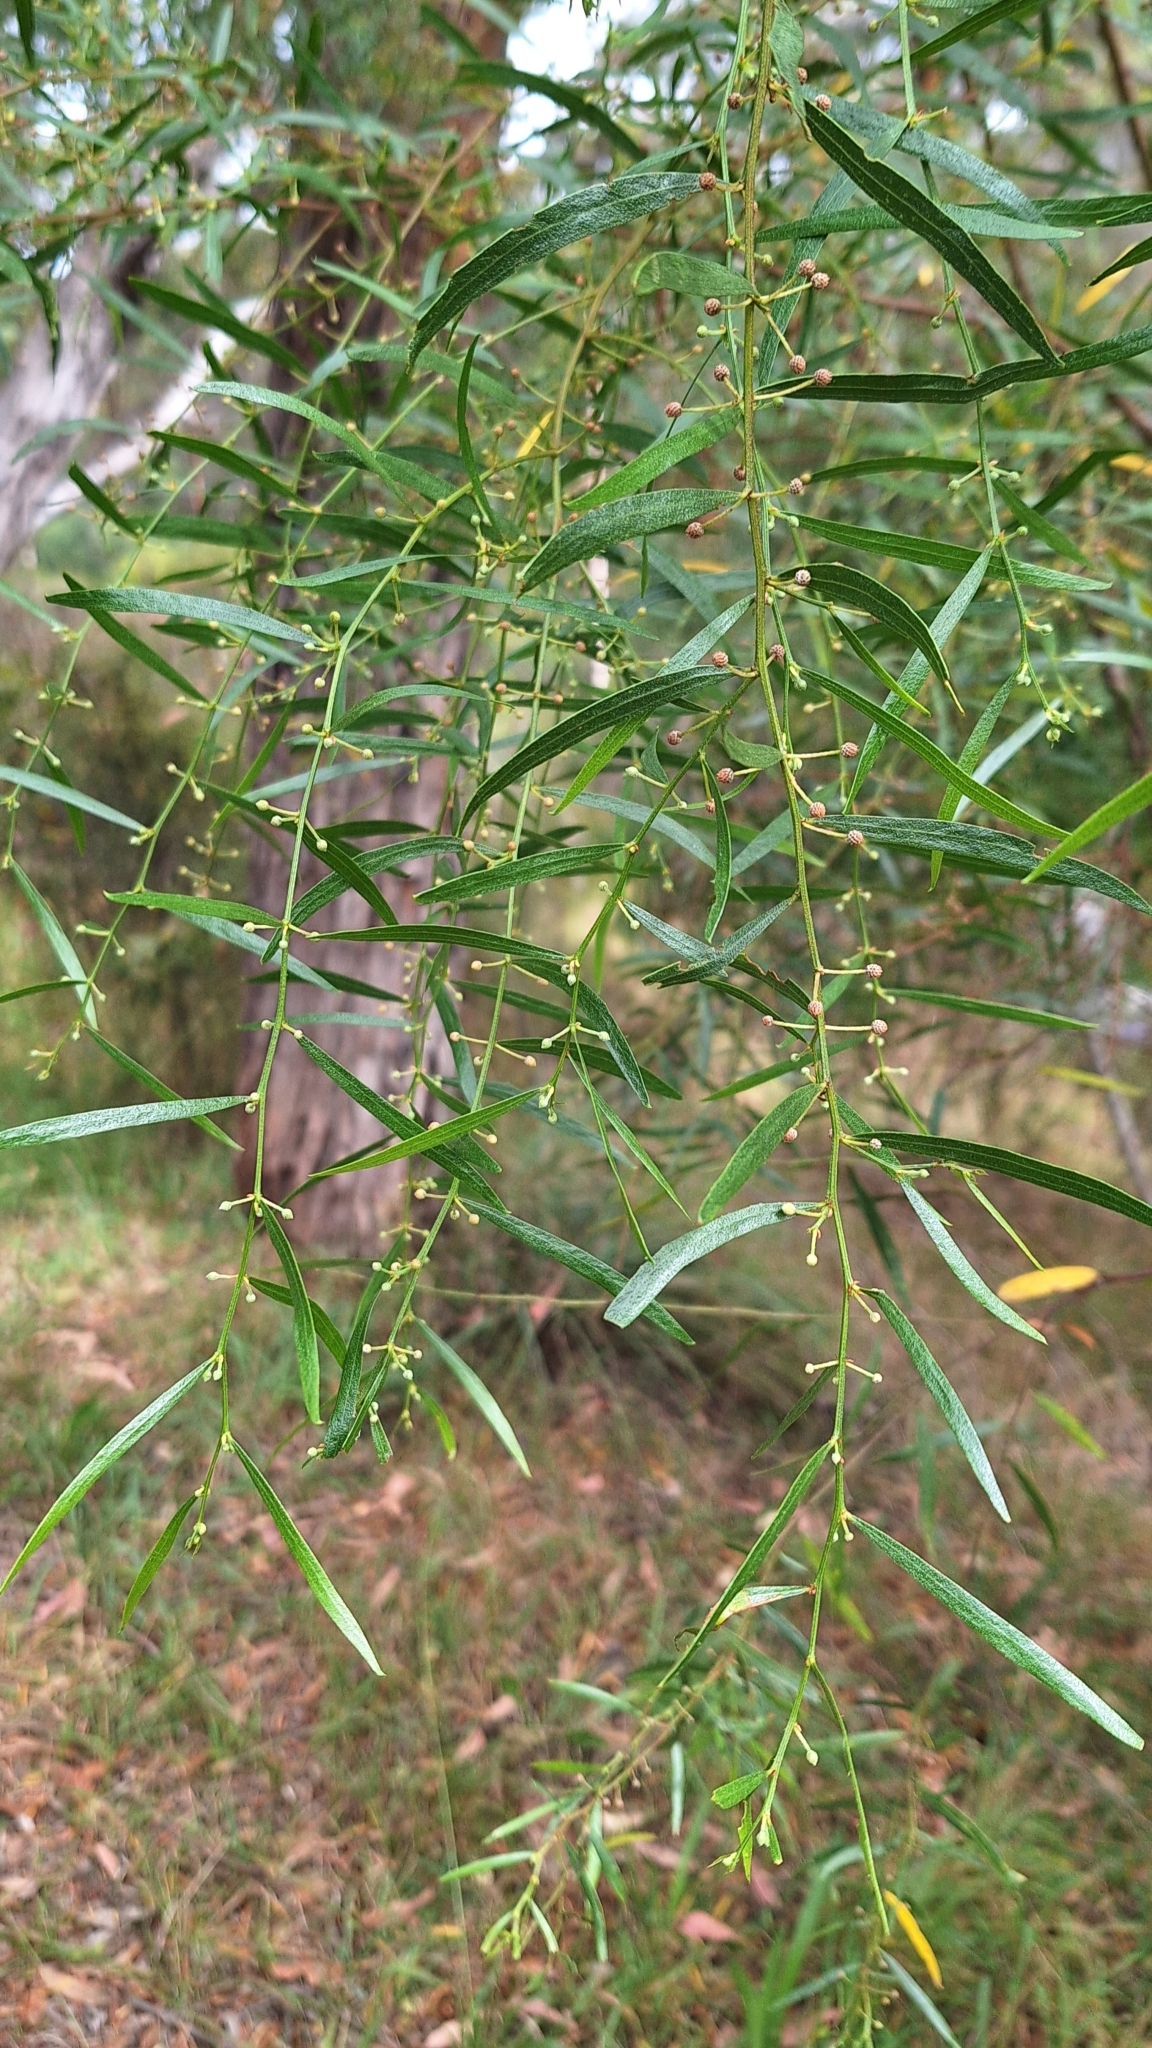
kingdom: Plantae
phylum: Tracheophyta
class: Magnoliopsida
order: Fabales
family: Fabaceae
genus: Acacia
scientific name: Acacia verniciflua
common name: Varnish wattle
